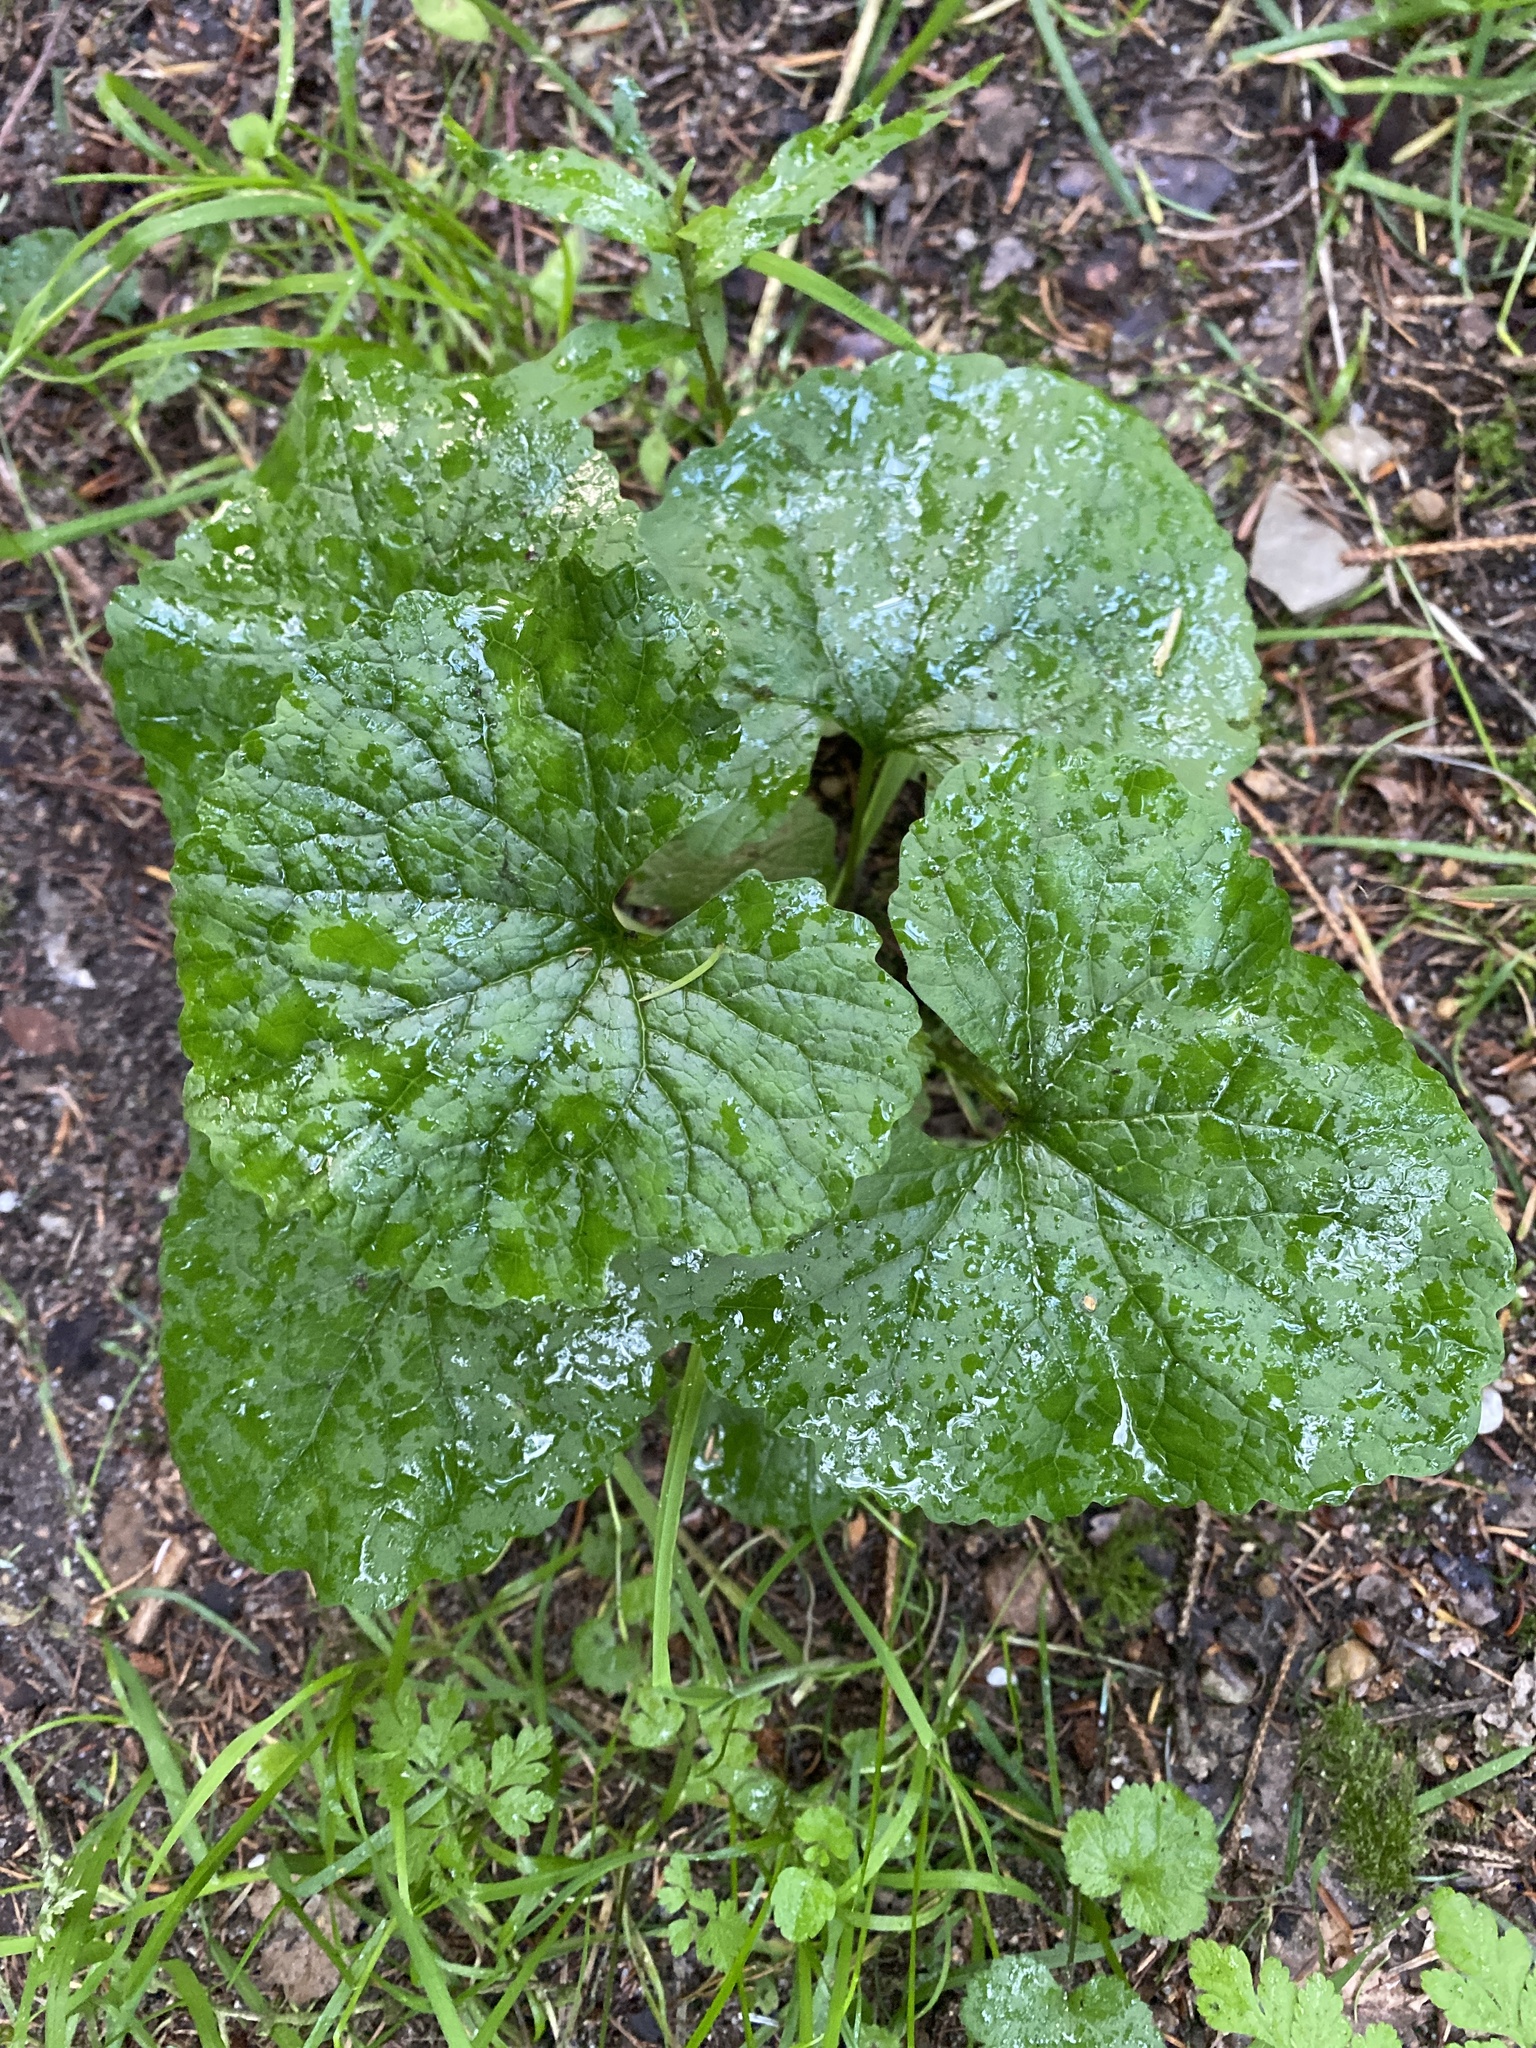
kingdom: Plantae
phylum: Tracheophyta
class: Magnoliopsida
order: Brassicales
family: Brassicaceae
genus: Alliaria
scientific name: Alliaria petiolata
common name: Garlic mustard
